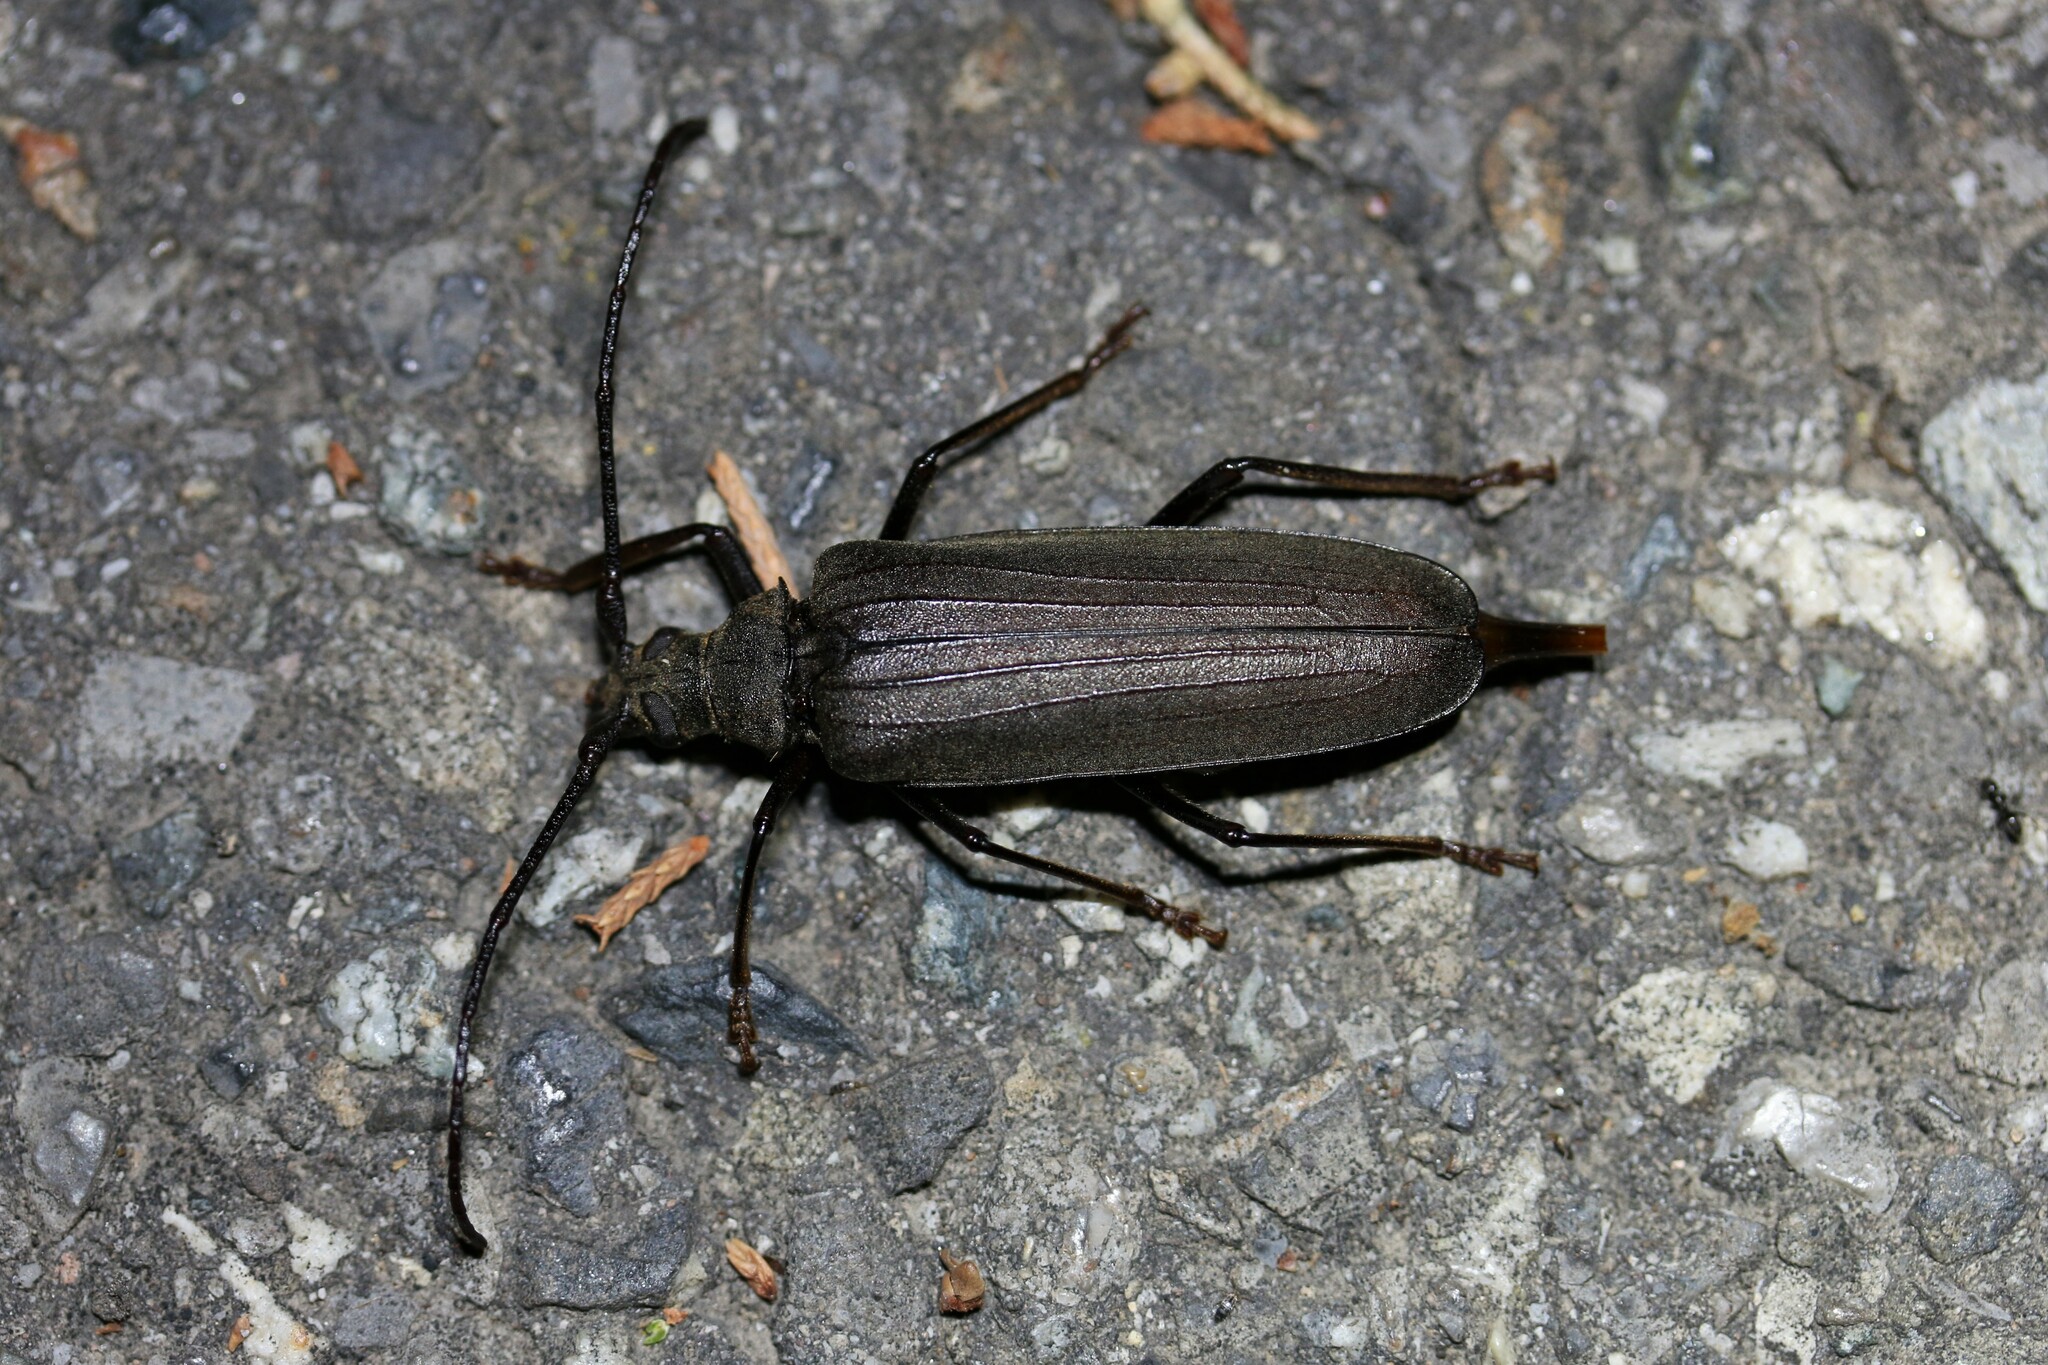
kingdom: Animalia
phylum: Arthropoda
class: Insecta
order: Coleoptera
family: Cerambycidae
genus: Aegosoma
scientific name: Aegosoma scabricorne
